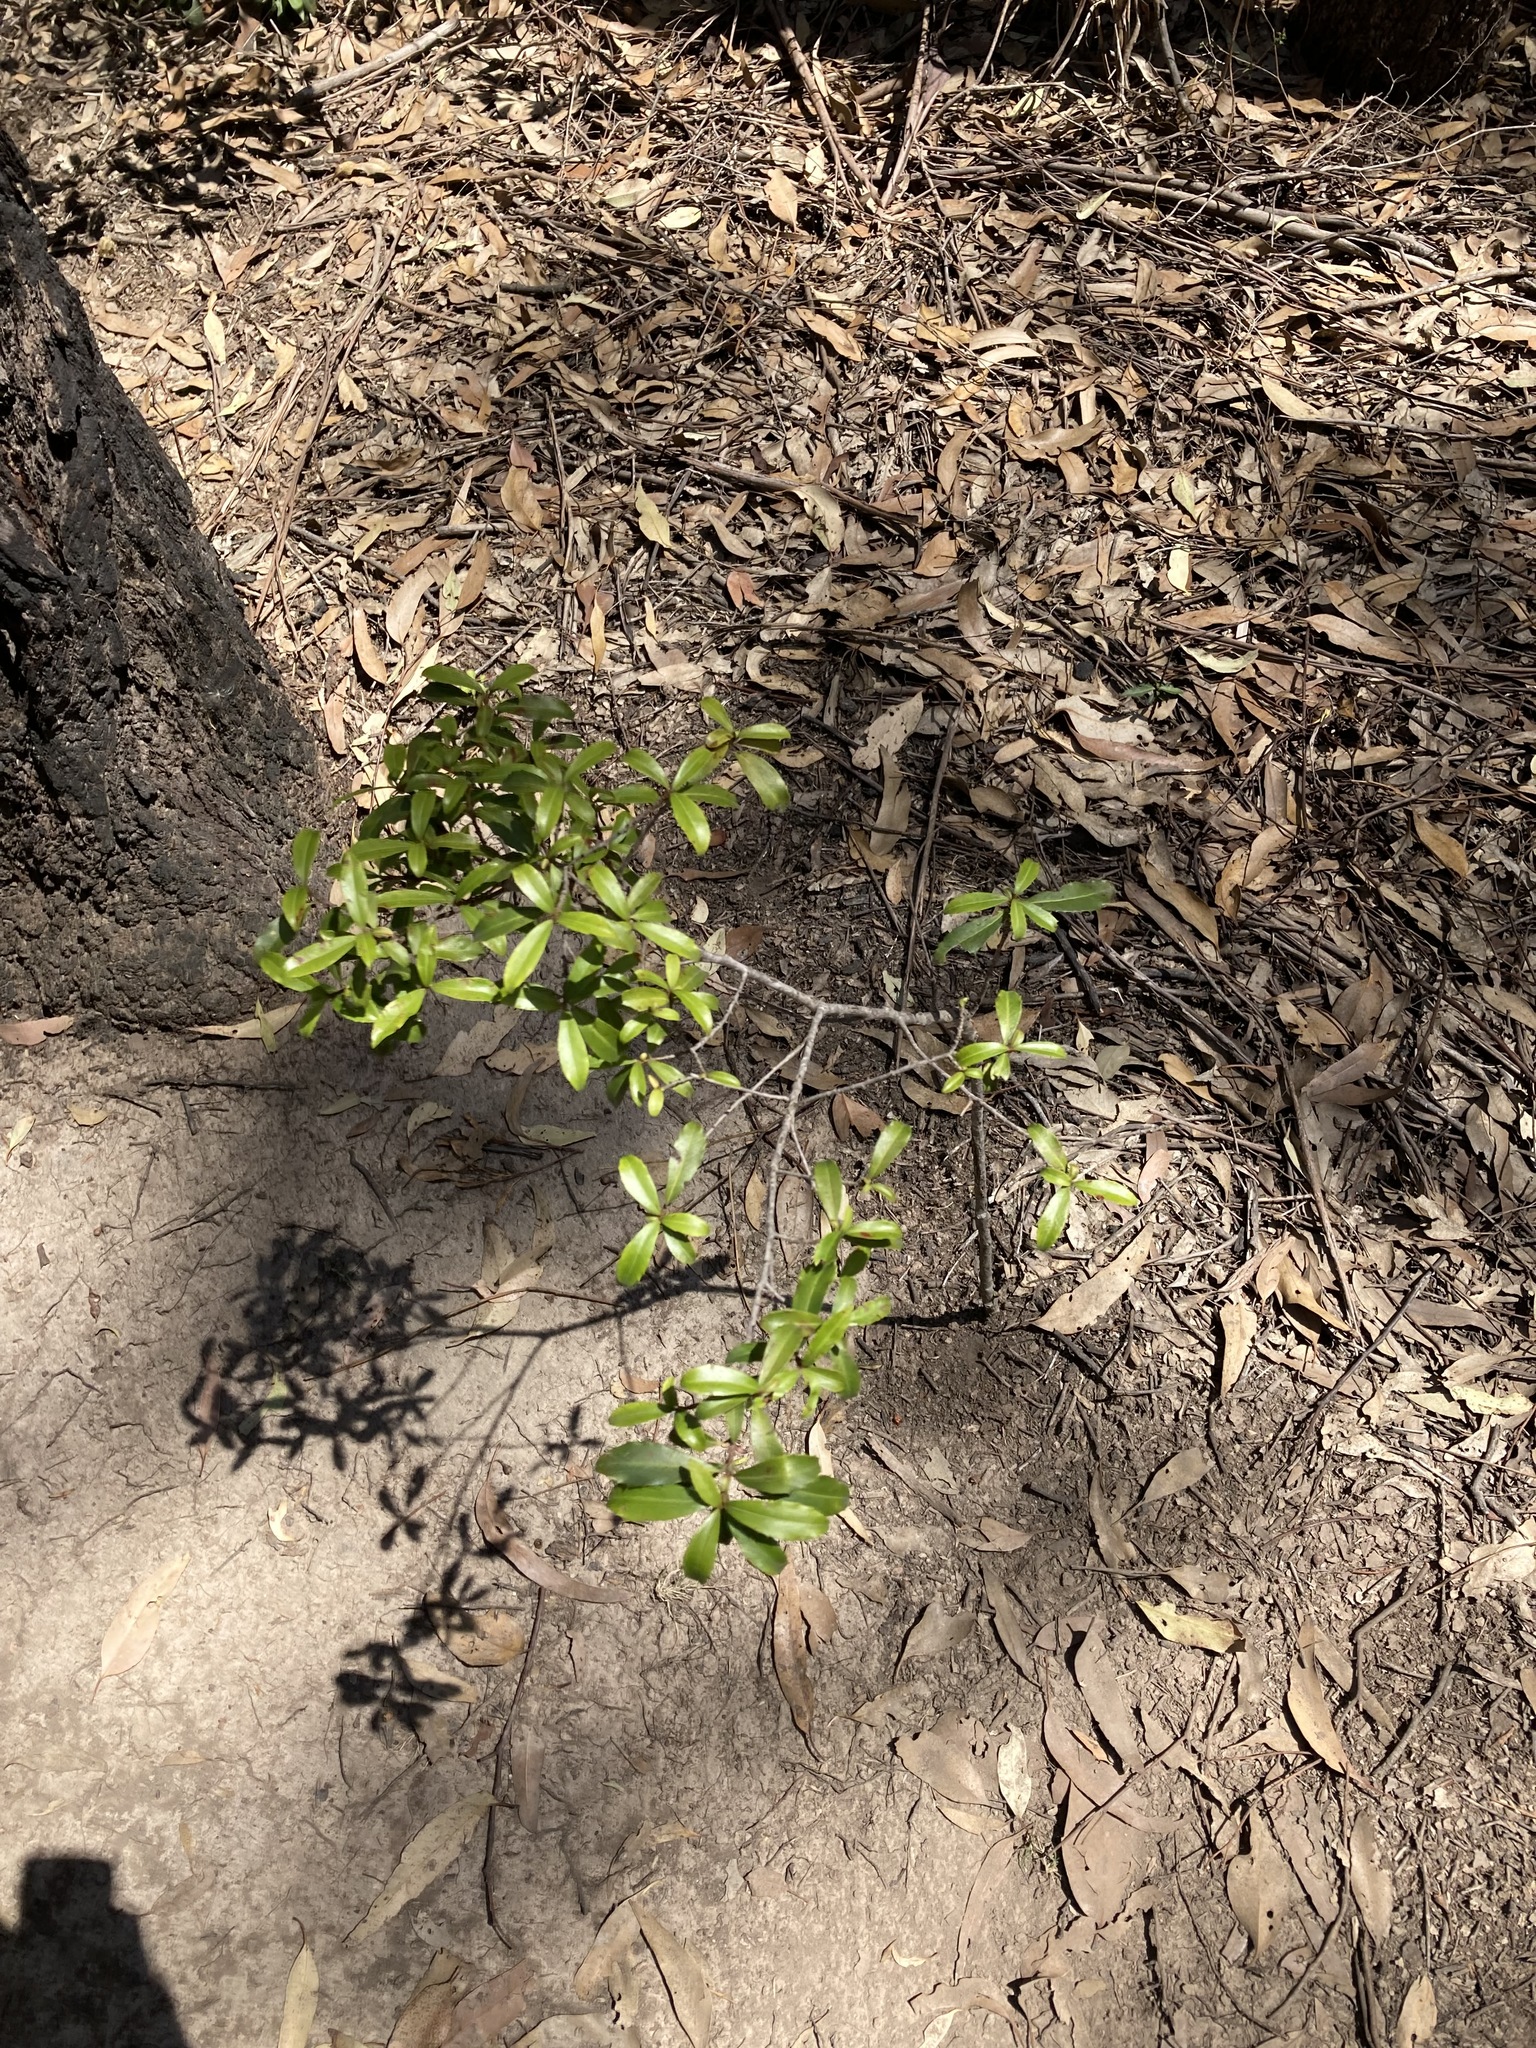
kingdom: Plantae
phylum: Tracheophyta
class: Magnoliopsida
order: Ericales
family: Primulaceae
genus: Myrsine
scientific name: Myrsine variabilis
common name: Brush muttonwood
